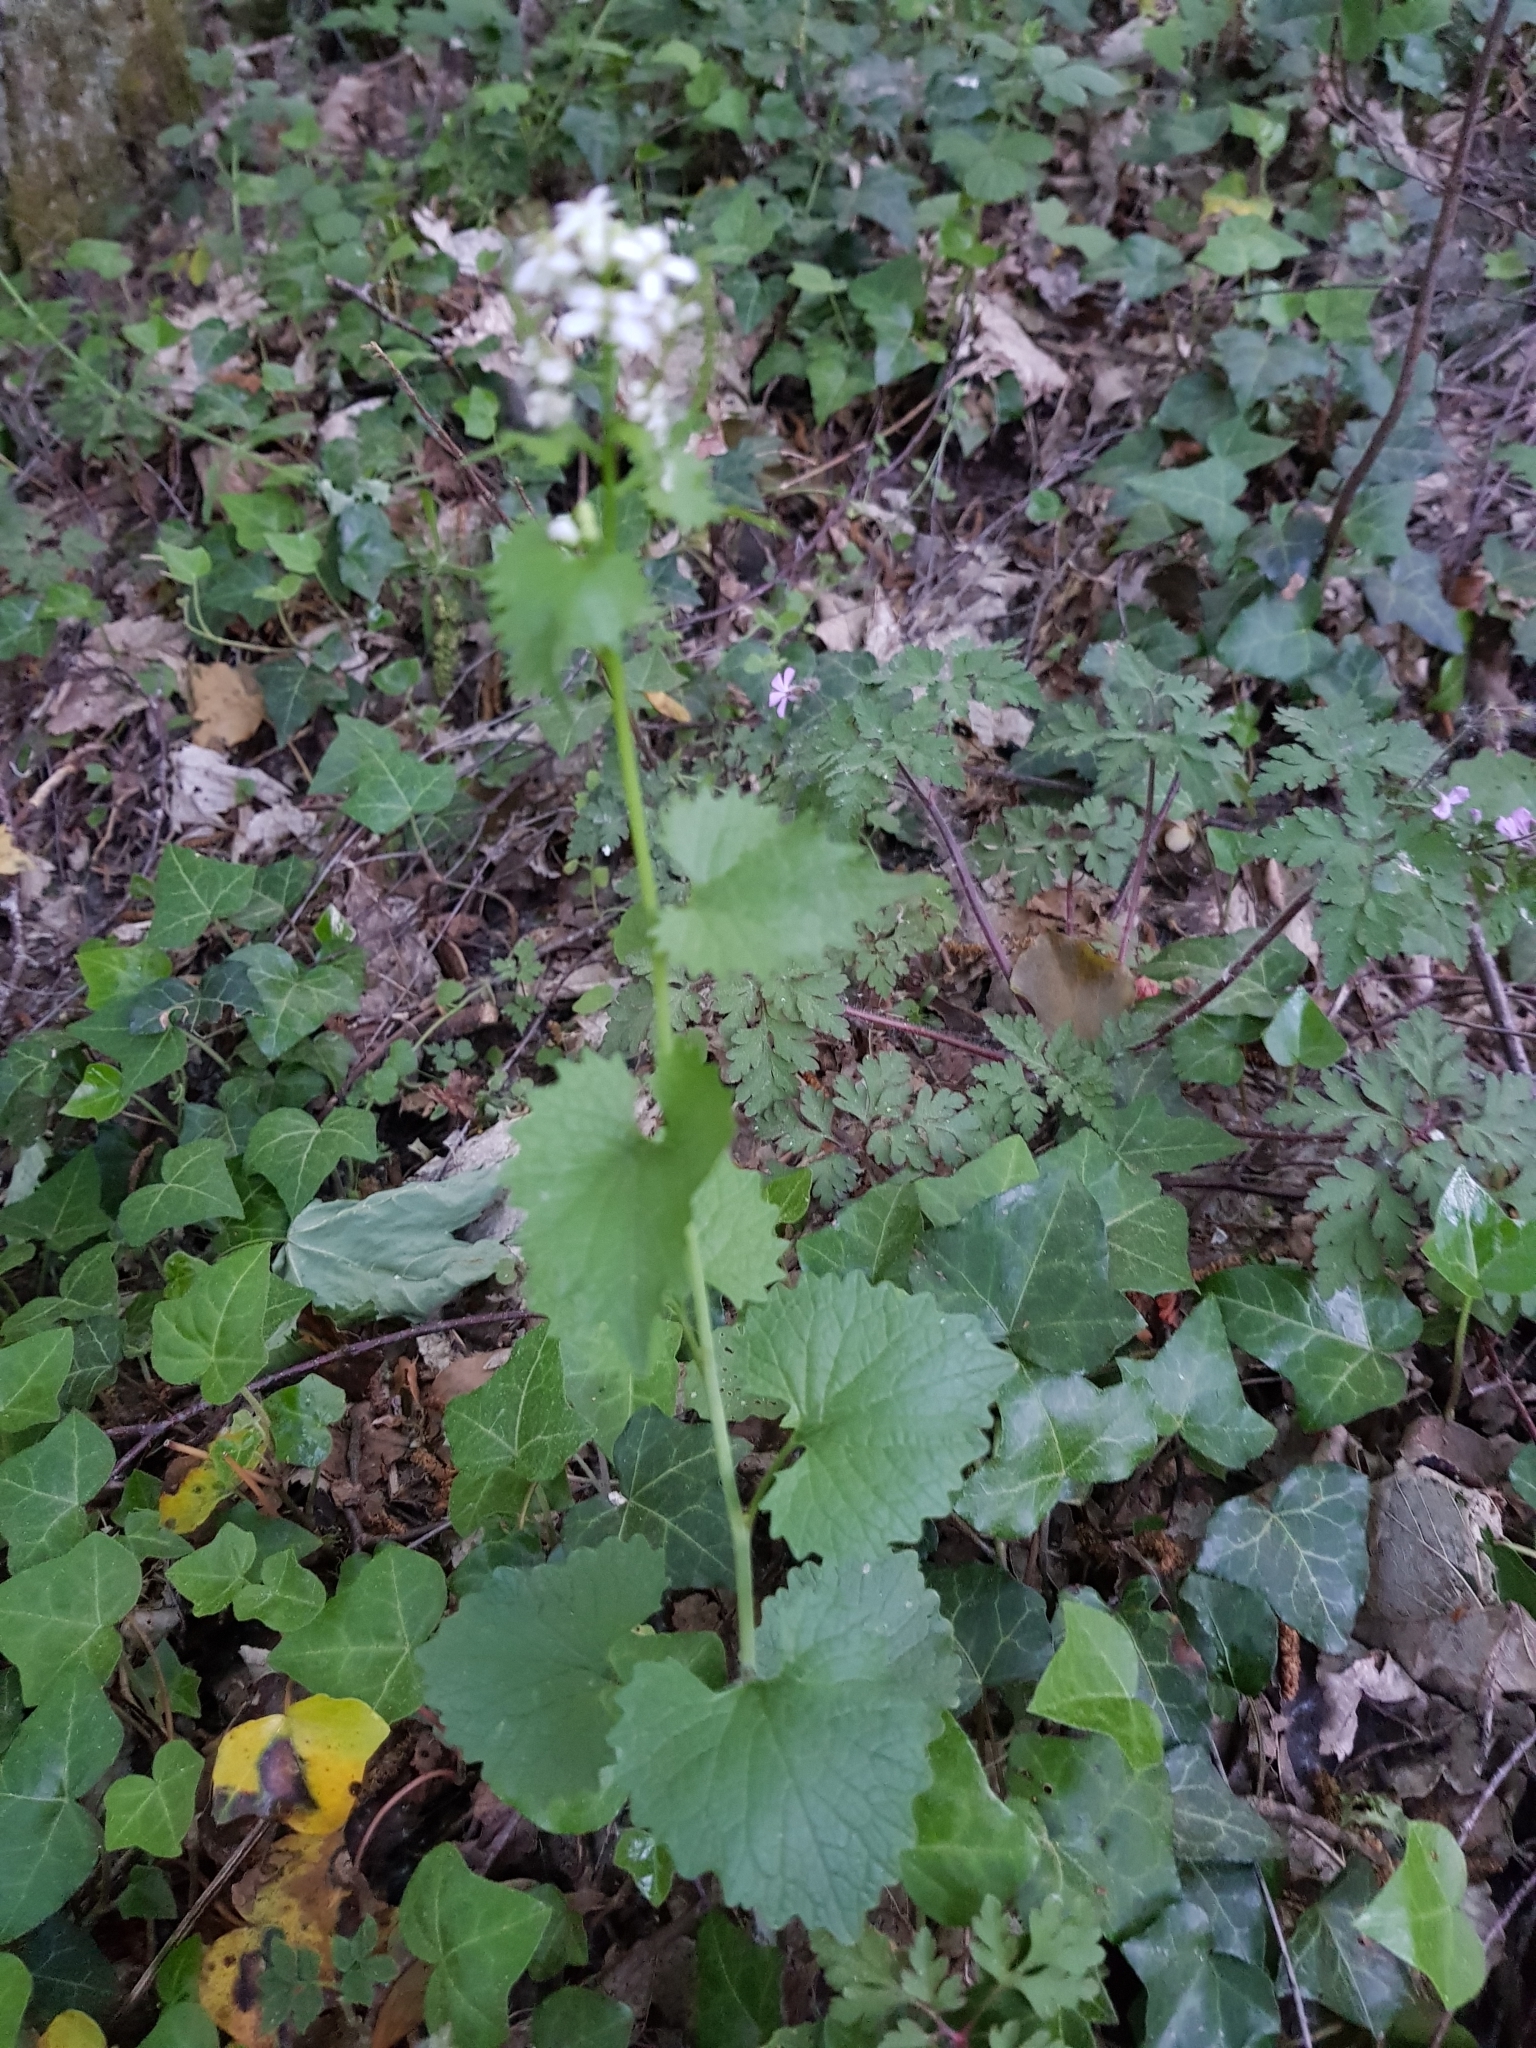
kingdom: Plantae
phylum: Tracheophyta
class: Magnoliopsida
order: Brassicales
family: Brassicaceae
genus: Alliaria
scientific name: Alliaria petiolata
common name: Garlic mustard
